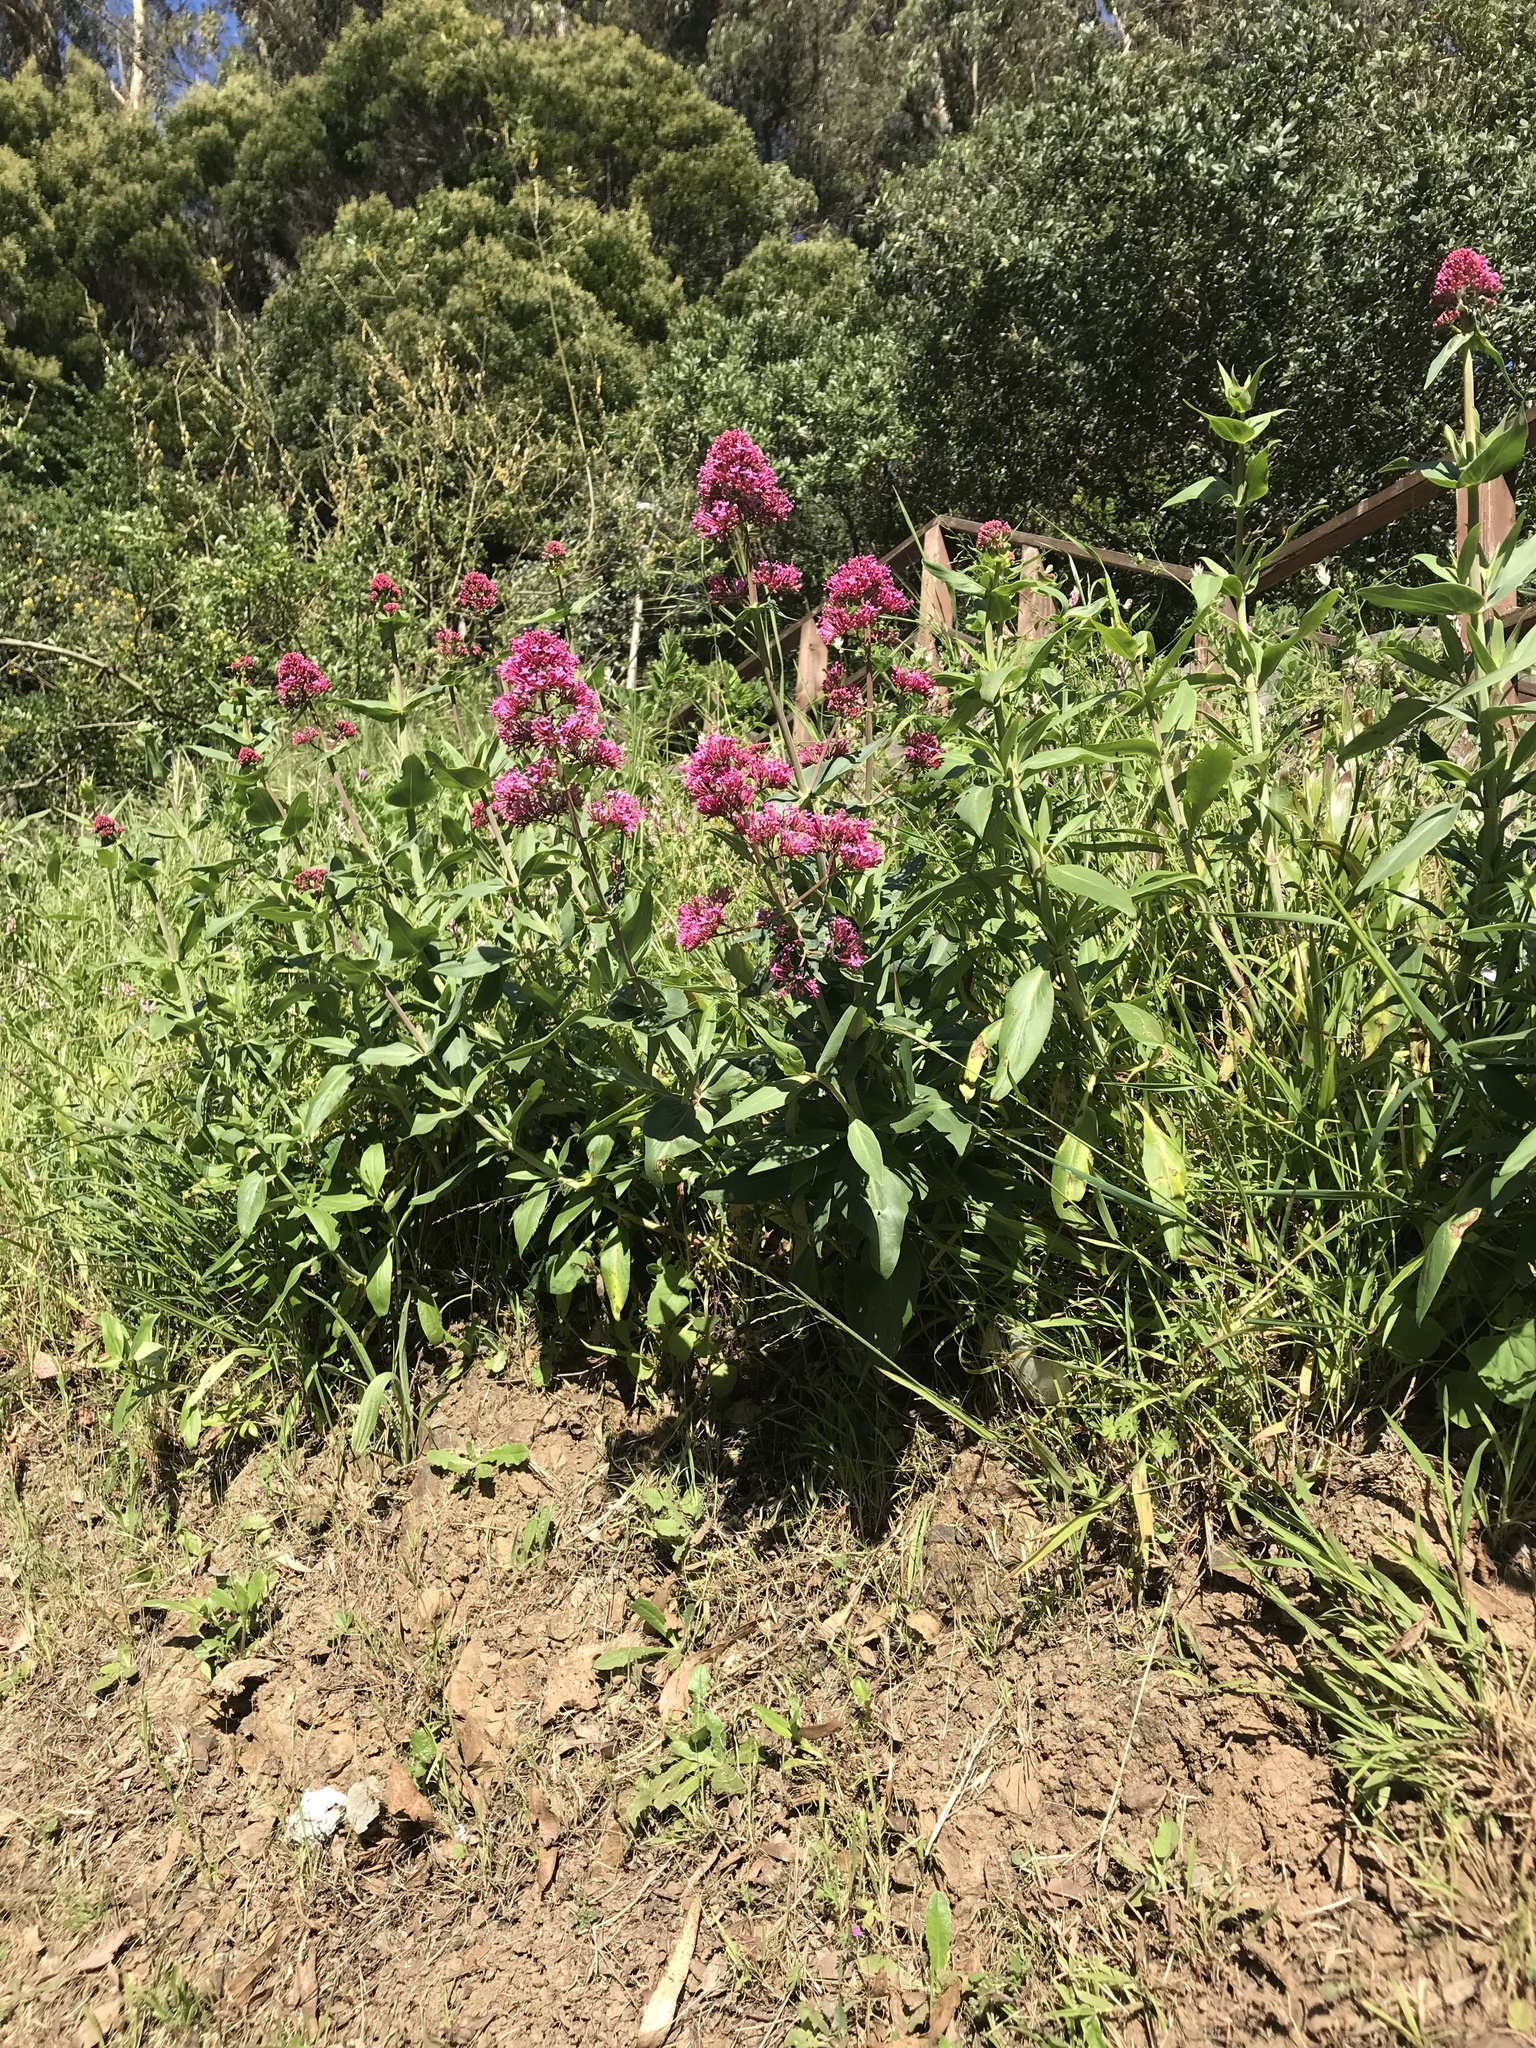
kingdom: Plantae
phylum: Tracheophyta
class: Magnoliopsida
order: Dipsacales
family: Caprifoliaceae
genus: Centranthus
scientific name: Centranthus ruber
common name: Red valerian
